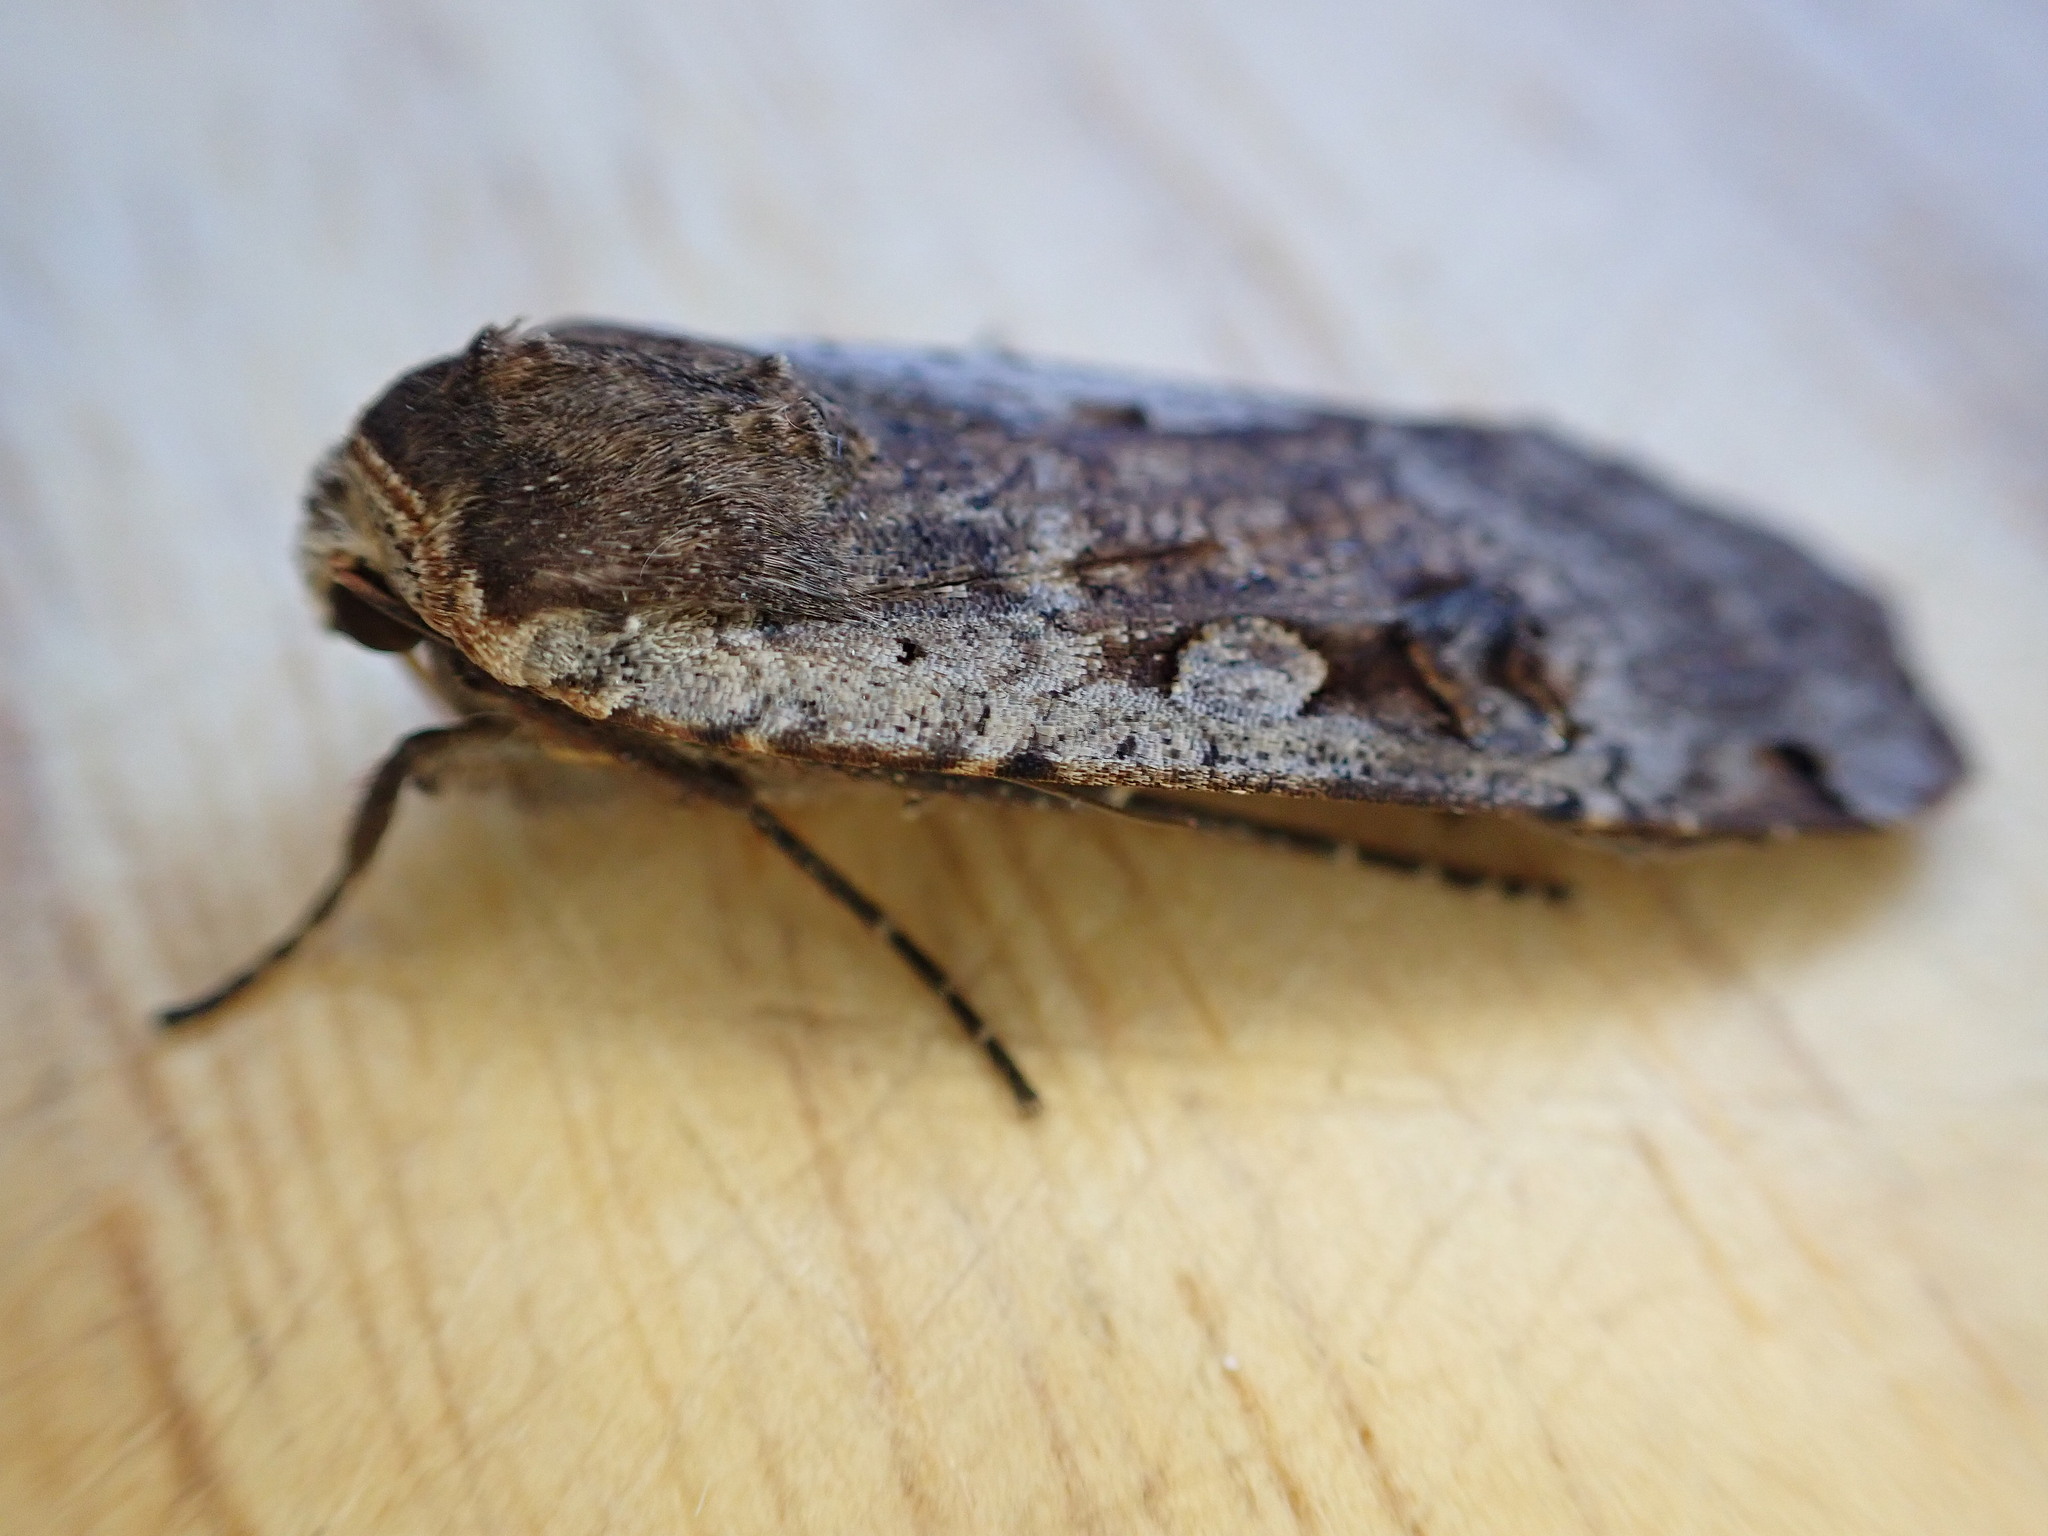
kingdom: Animalia
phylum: Arthropoda
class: Insecta
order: Lepidoptera
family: Noctuidae
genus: Noctua
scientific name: Noctua pronuba
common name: Large yellow underwing
